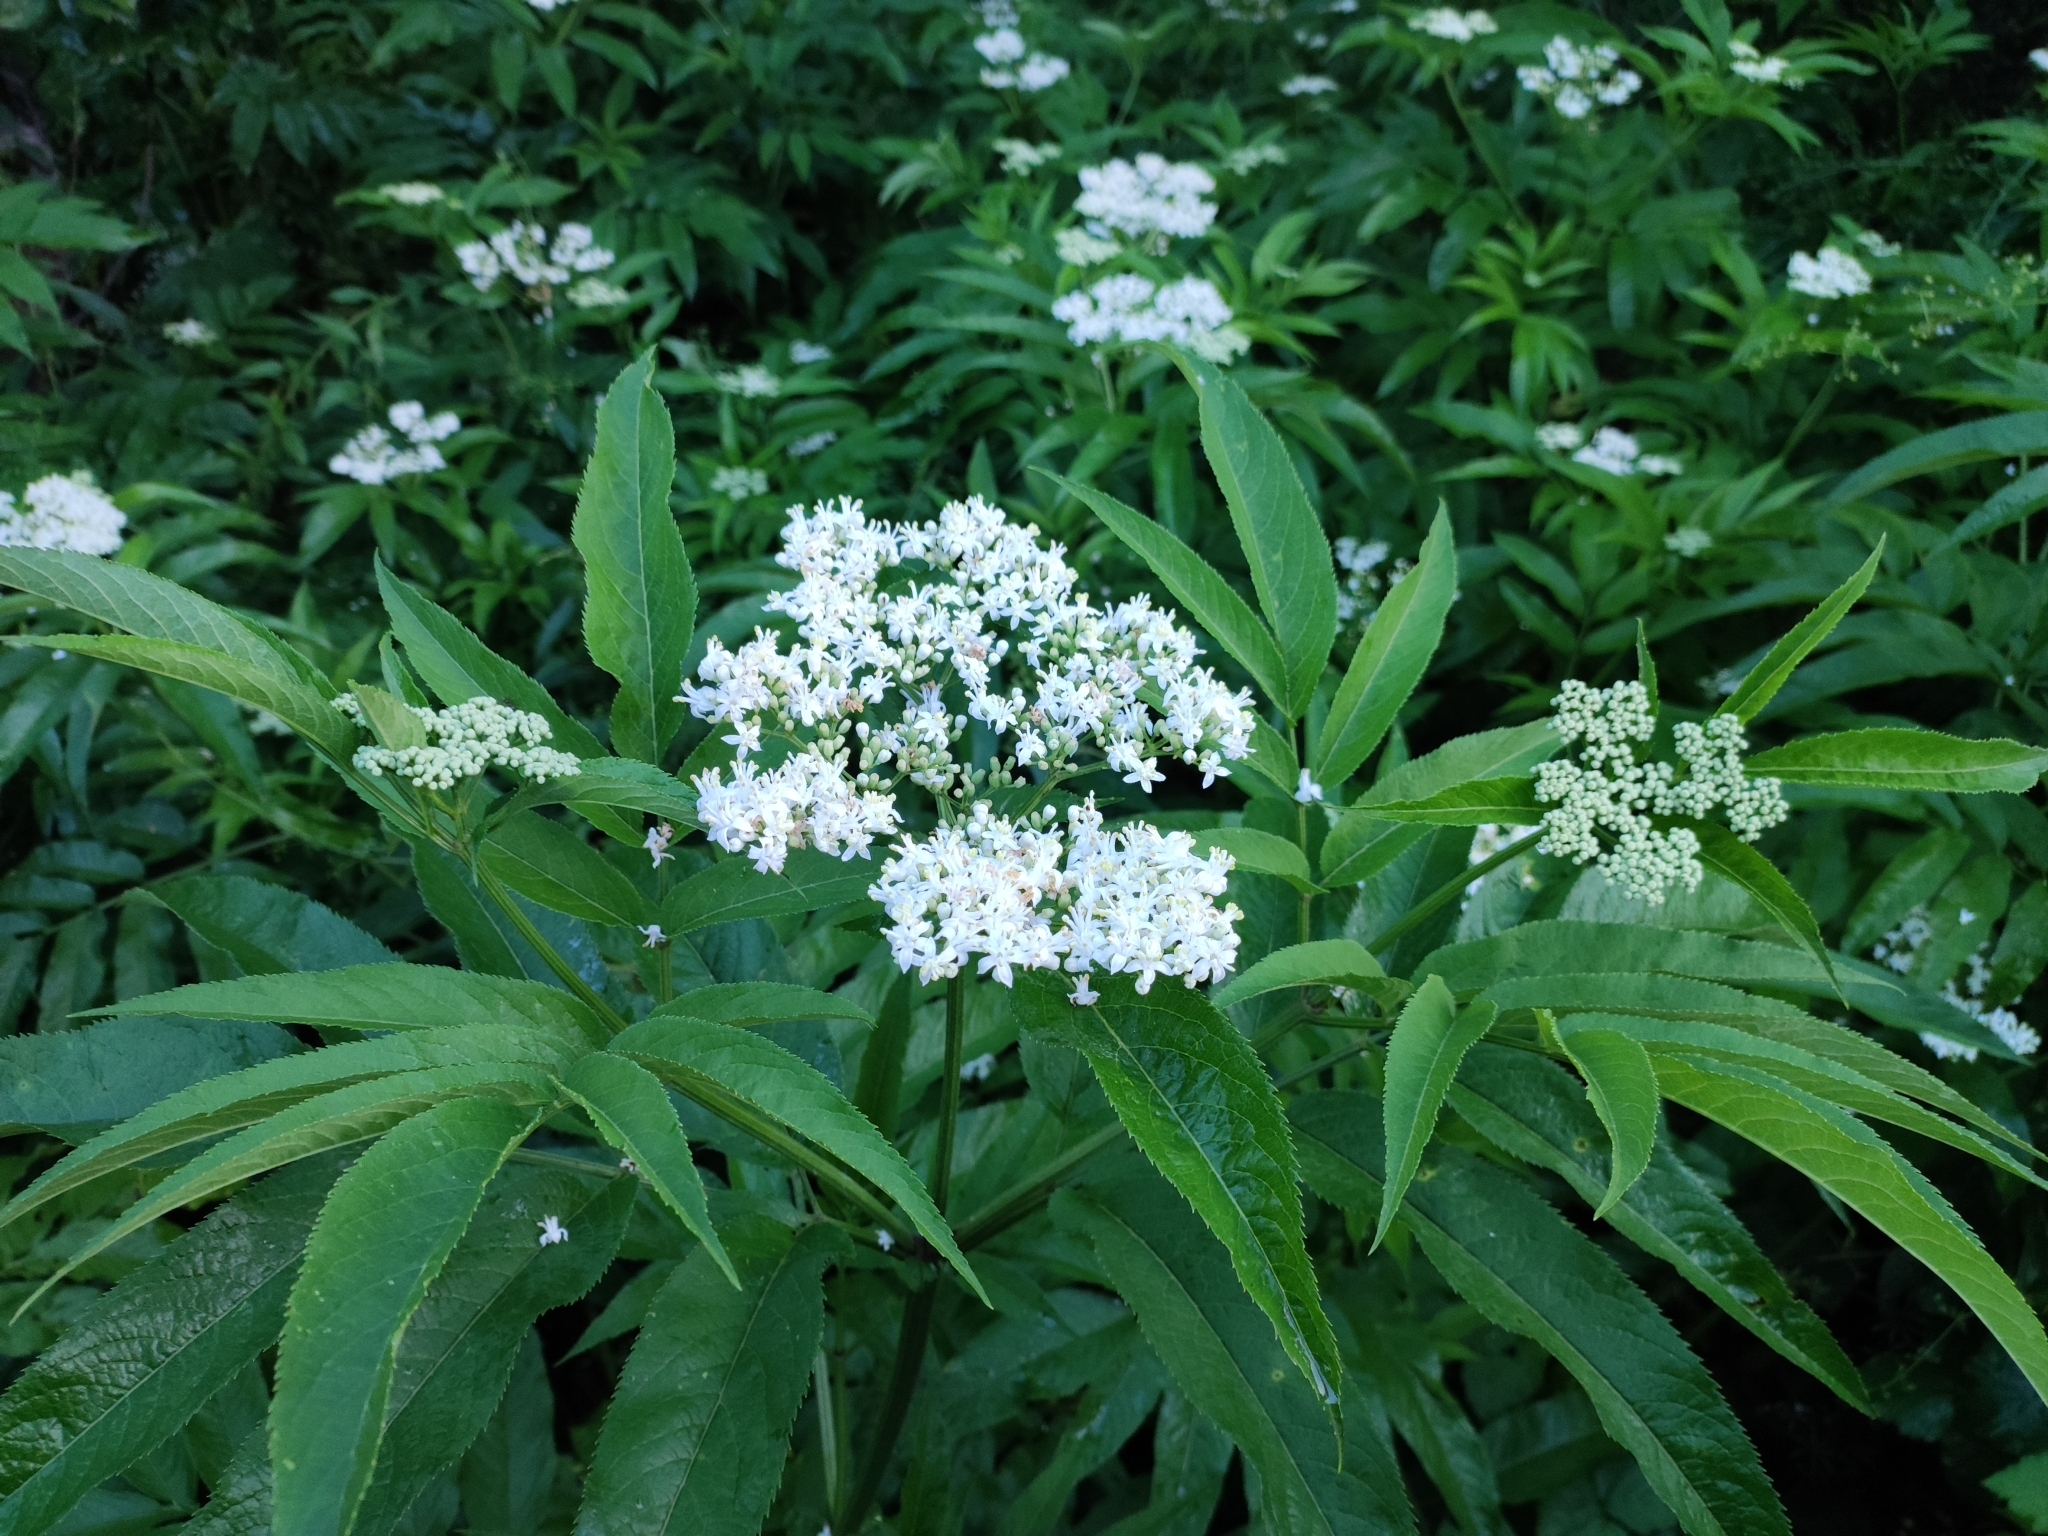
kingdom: Plantae
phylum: Tracheophyta
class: Magnoliopsida
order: Dipsacales
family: Viburnaceae
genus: Sambucus
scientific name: Sambucus ebulus
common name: Dwarf elder
